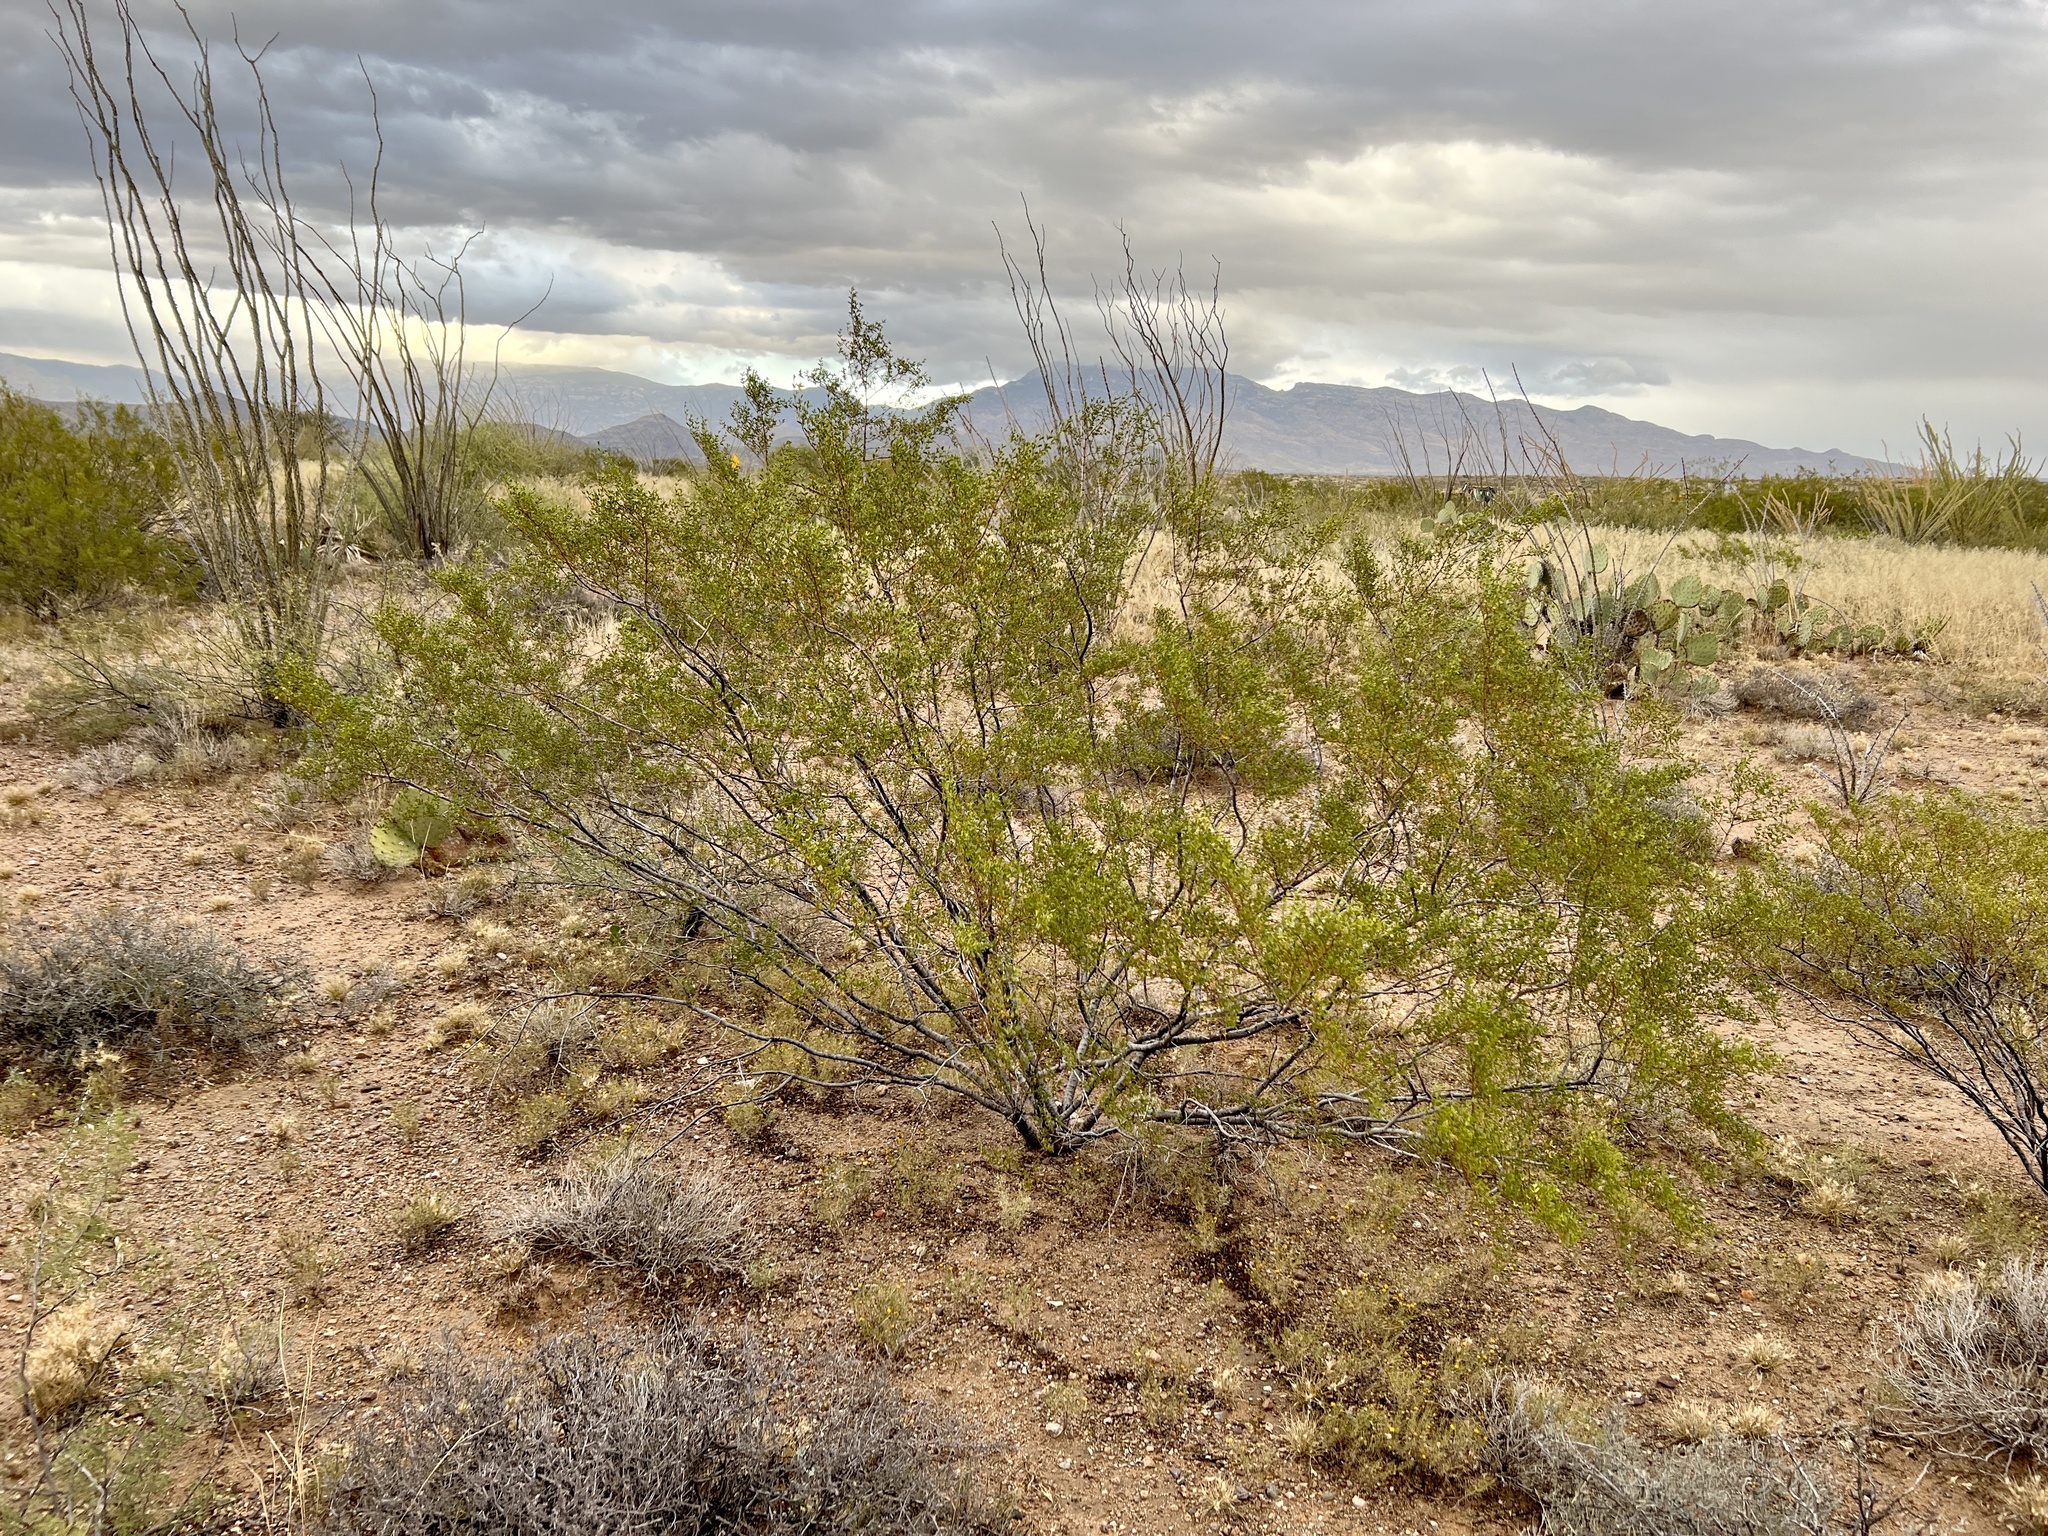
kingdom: Plantae
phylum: Tracheophyta
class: Magnoliopsida
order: Zygophyllales
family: Zygophyllaceae
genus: Larrea
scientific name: Larrea tridentata
